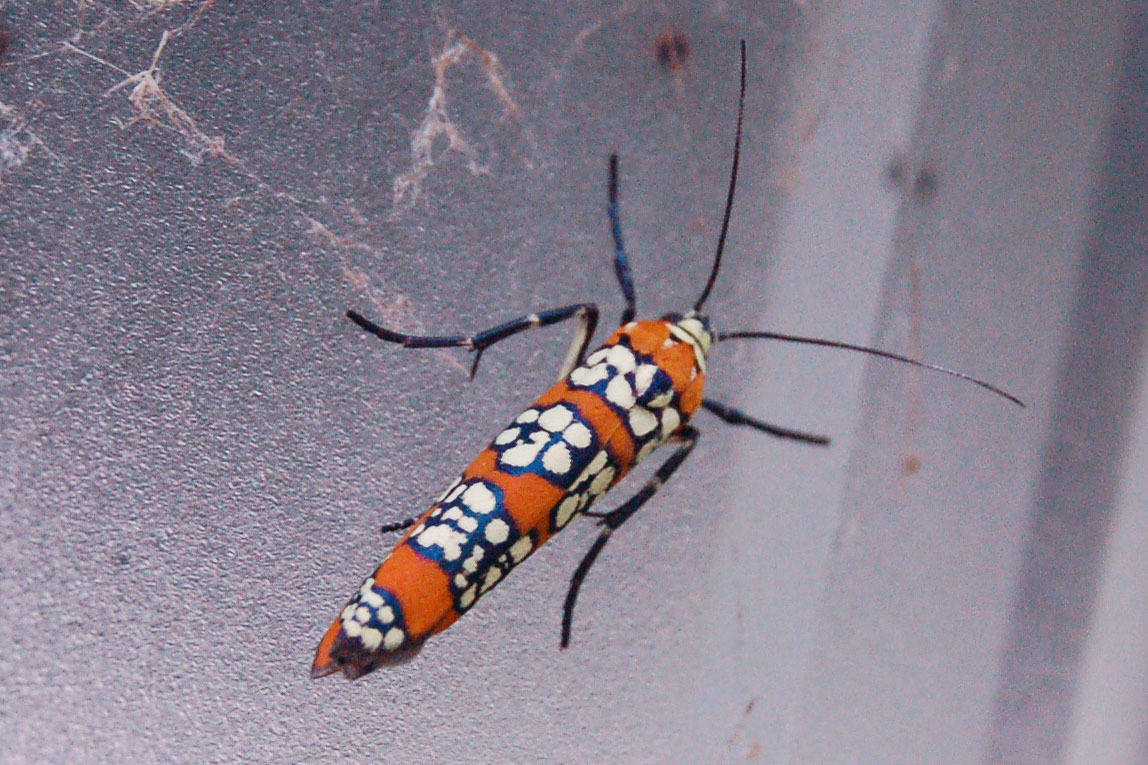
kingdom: Animalia
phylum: Arthropoda
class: Insecta
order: Lepidoptera
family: Attevidae
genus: Atteva
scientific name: Atteva punctella
